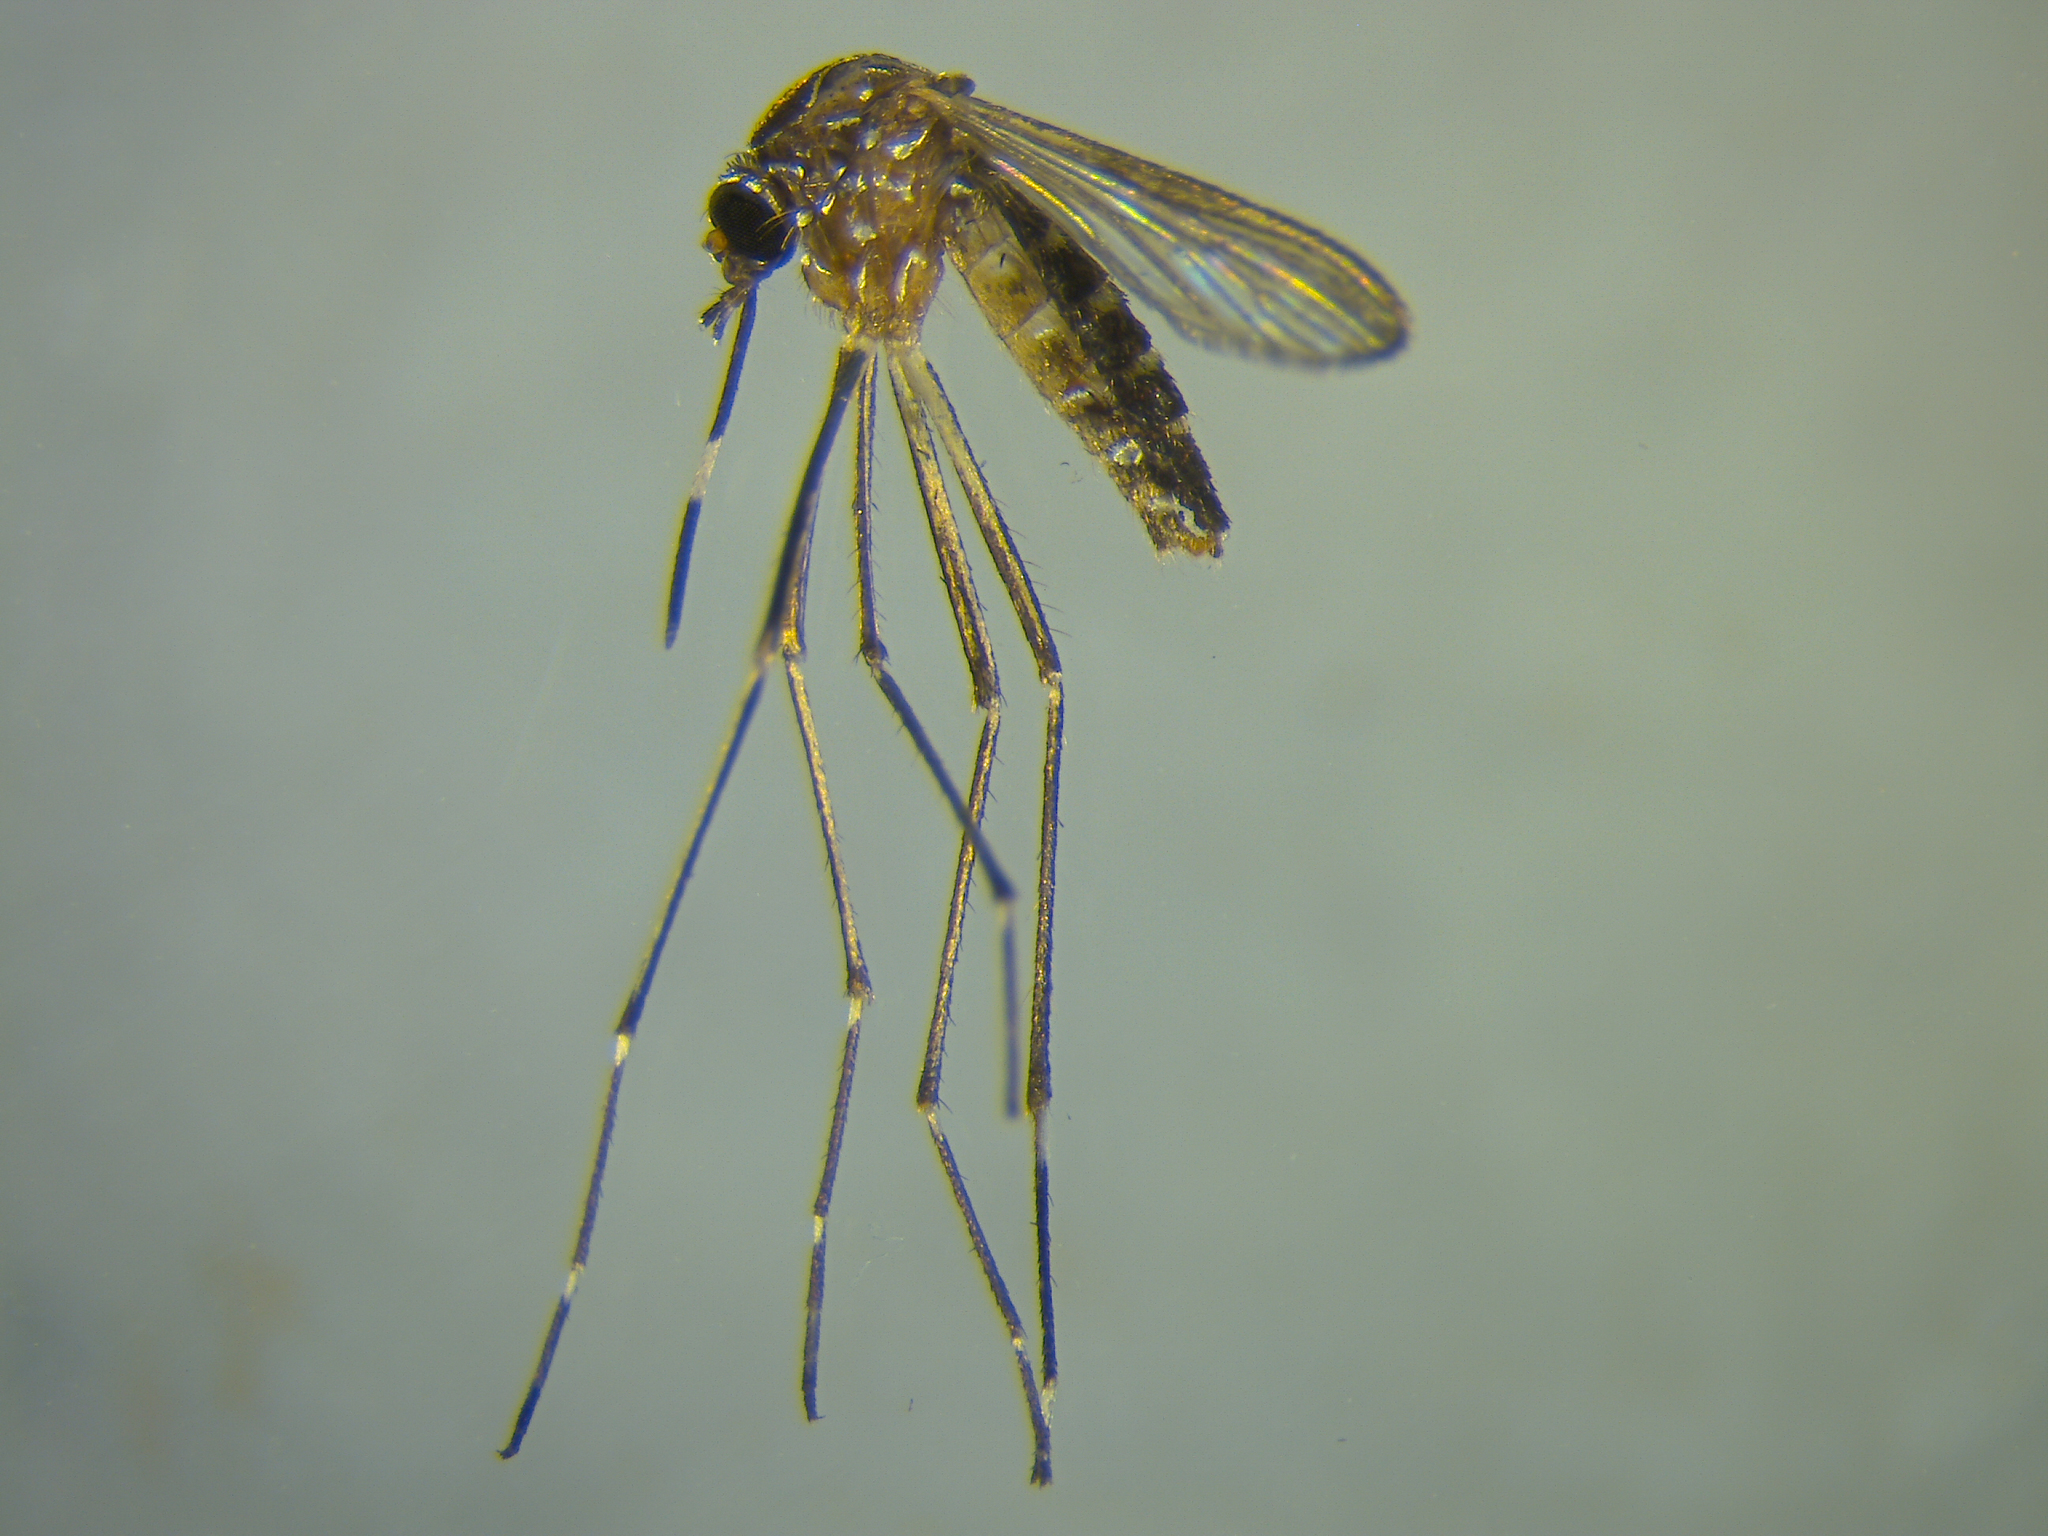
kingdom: Animalia
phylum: Arthropoda
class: Insecta
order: Diptera
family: Culicidae
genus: Aedes
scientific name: Aedes notoscriptus
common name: Australian backyard mosquito
